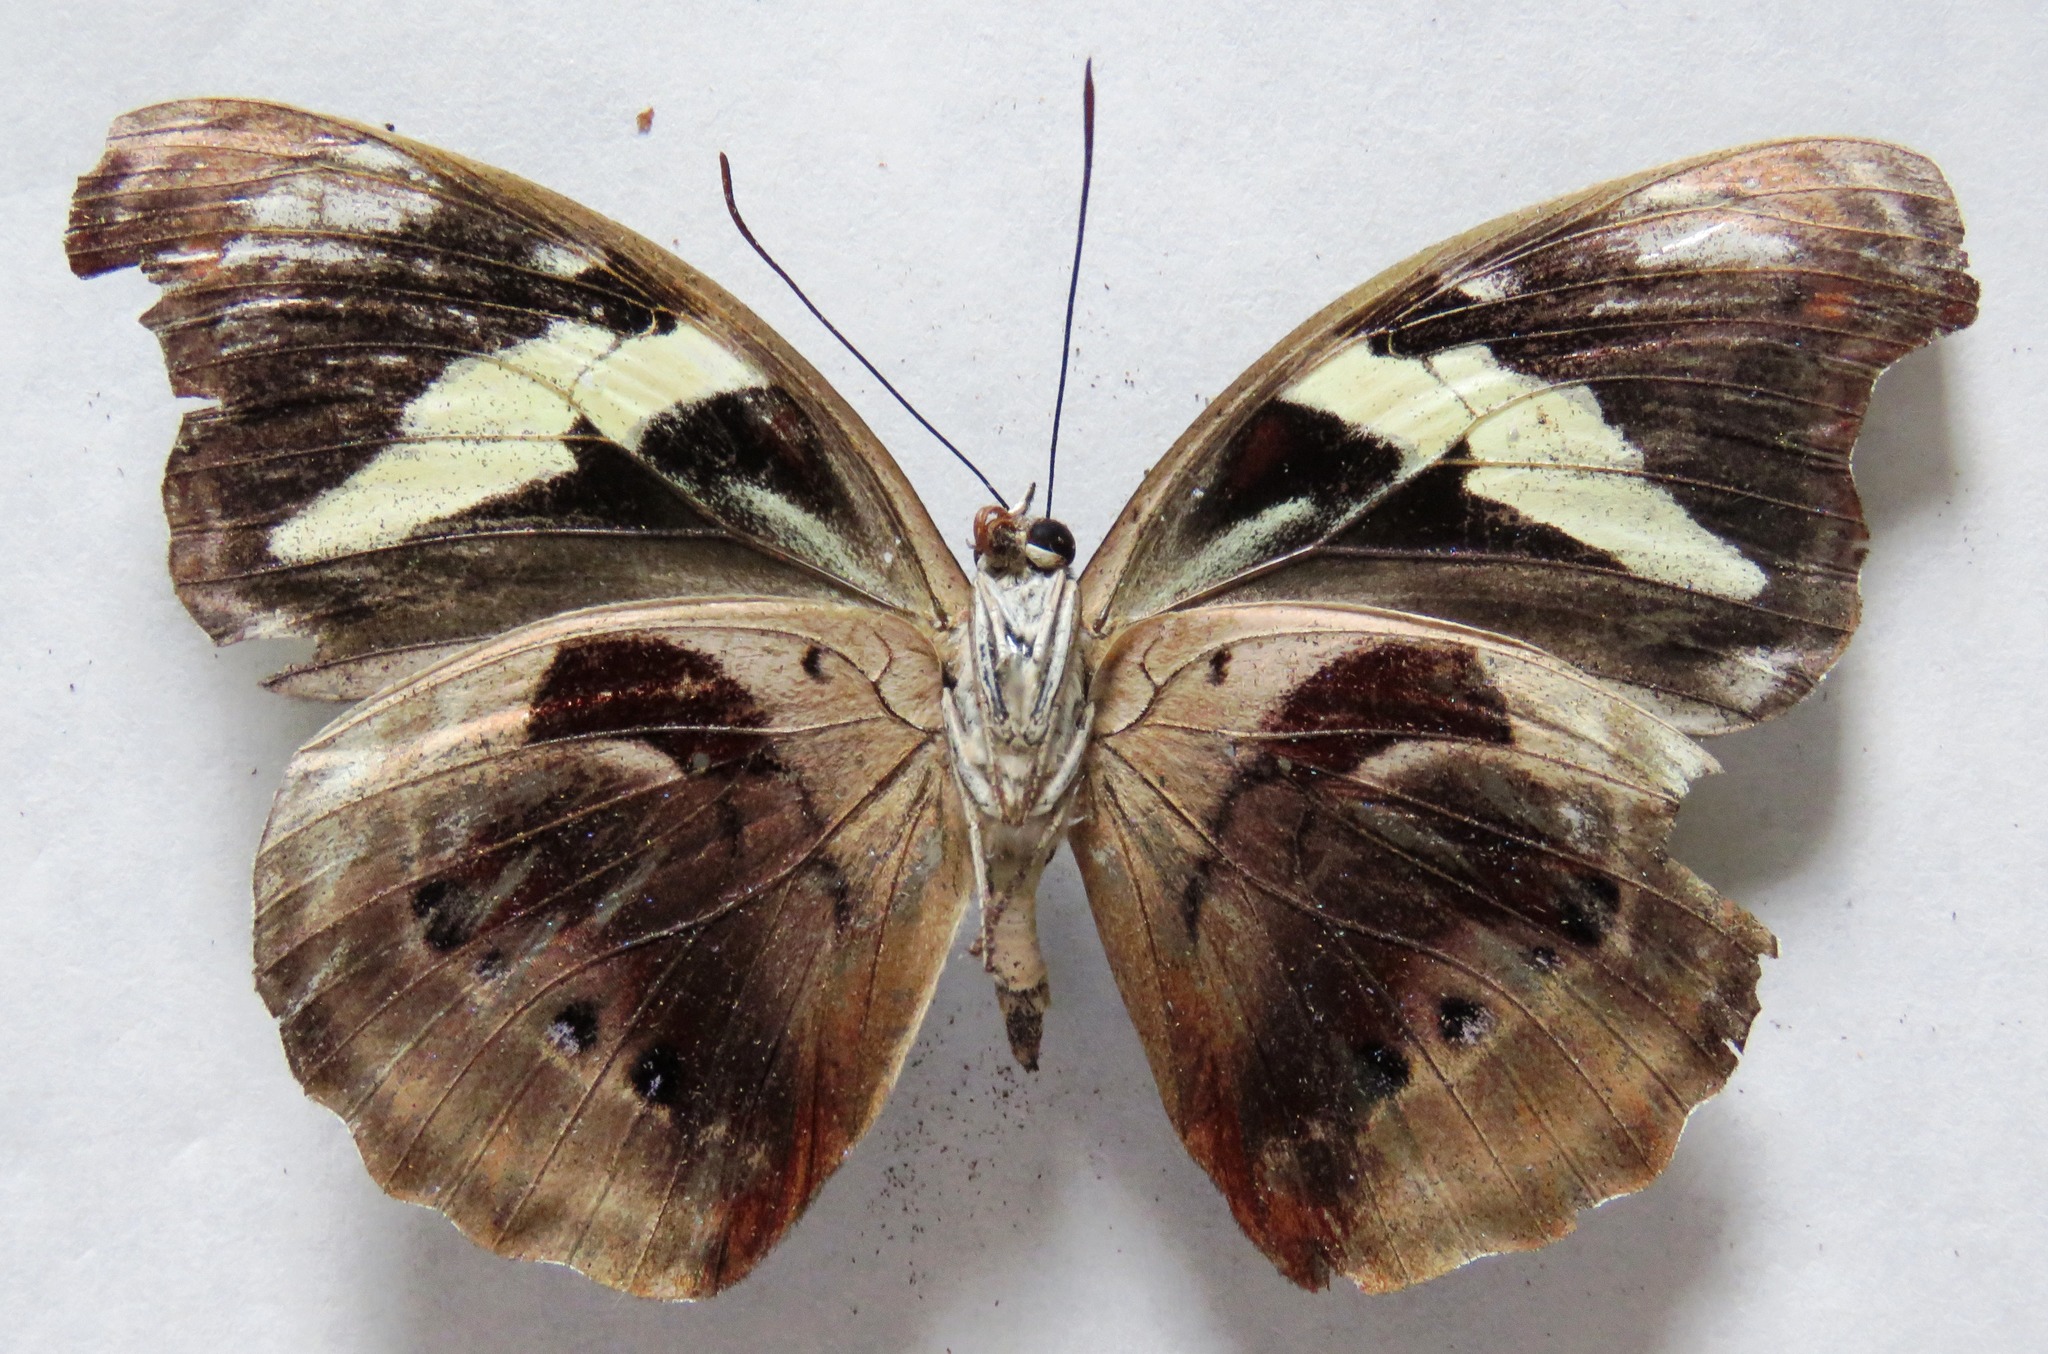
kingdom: Animalia
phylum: Arthropoda
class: Insecta
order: Lepidoptera
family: Nymphalidae
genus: Catonephele
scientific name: Catonephele numilia
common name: Blue-frosted banner
